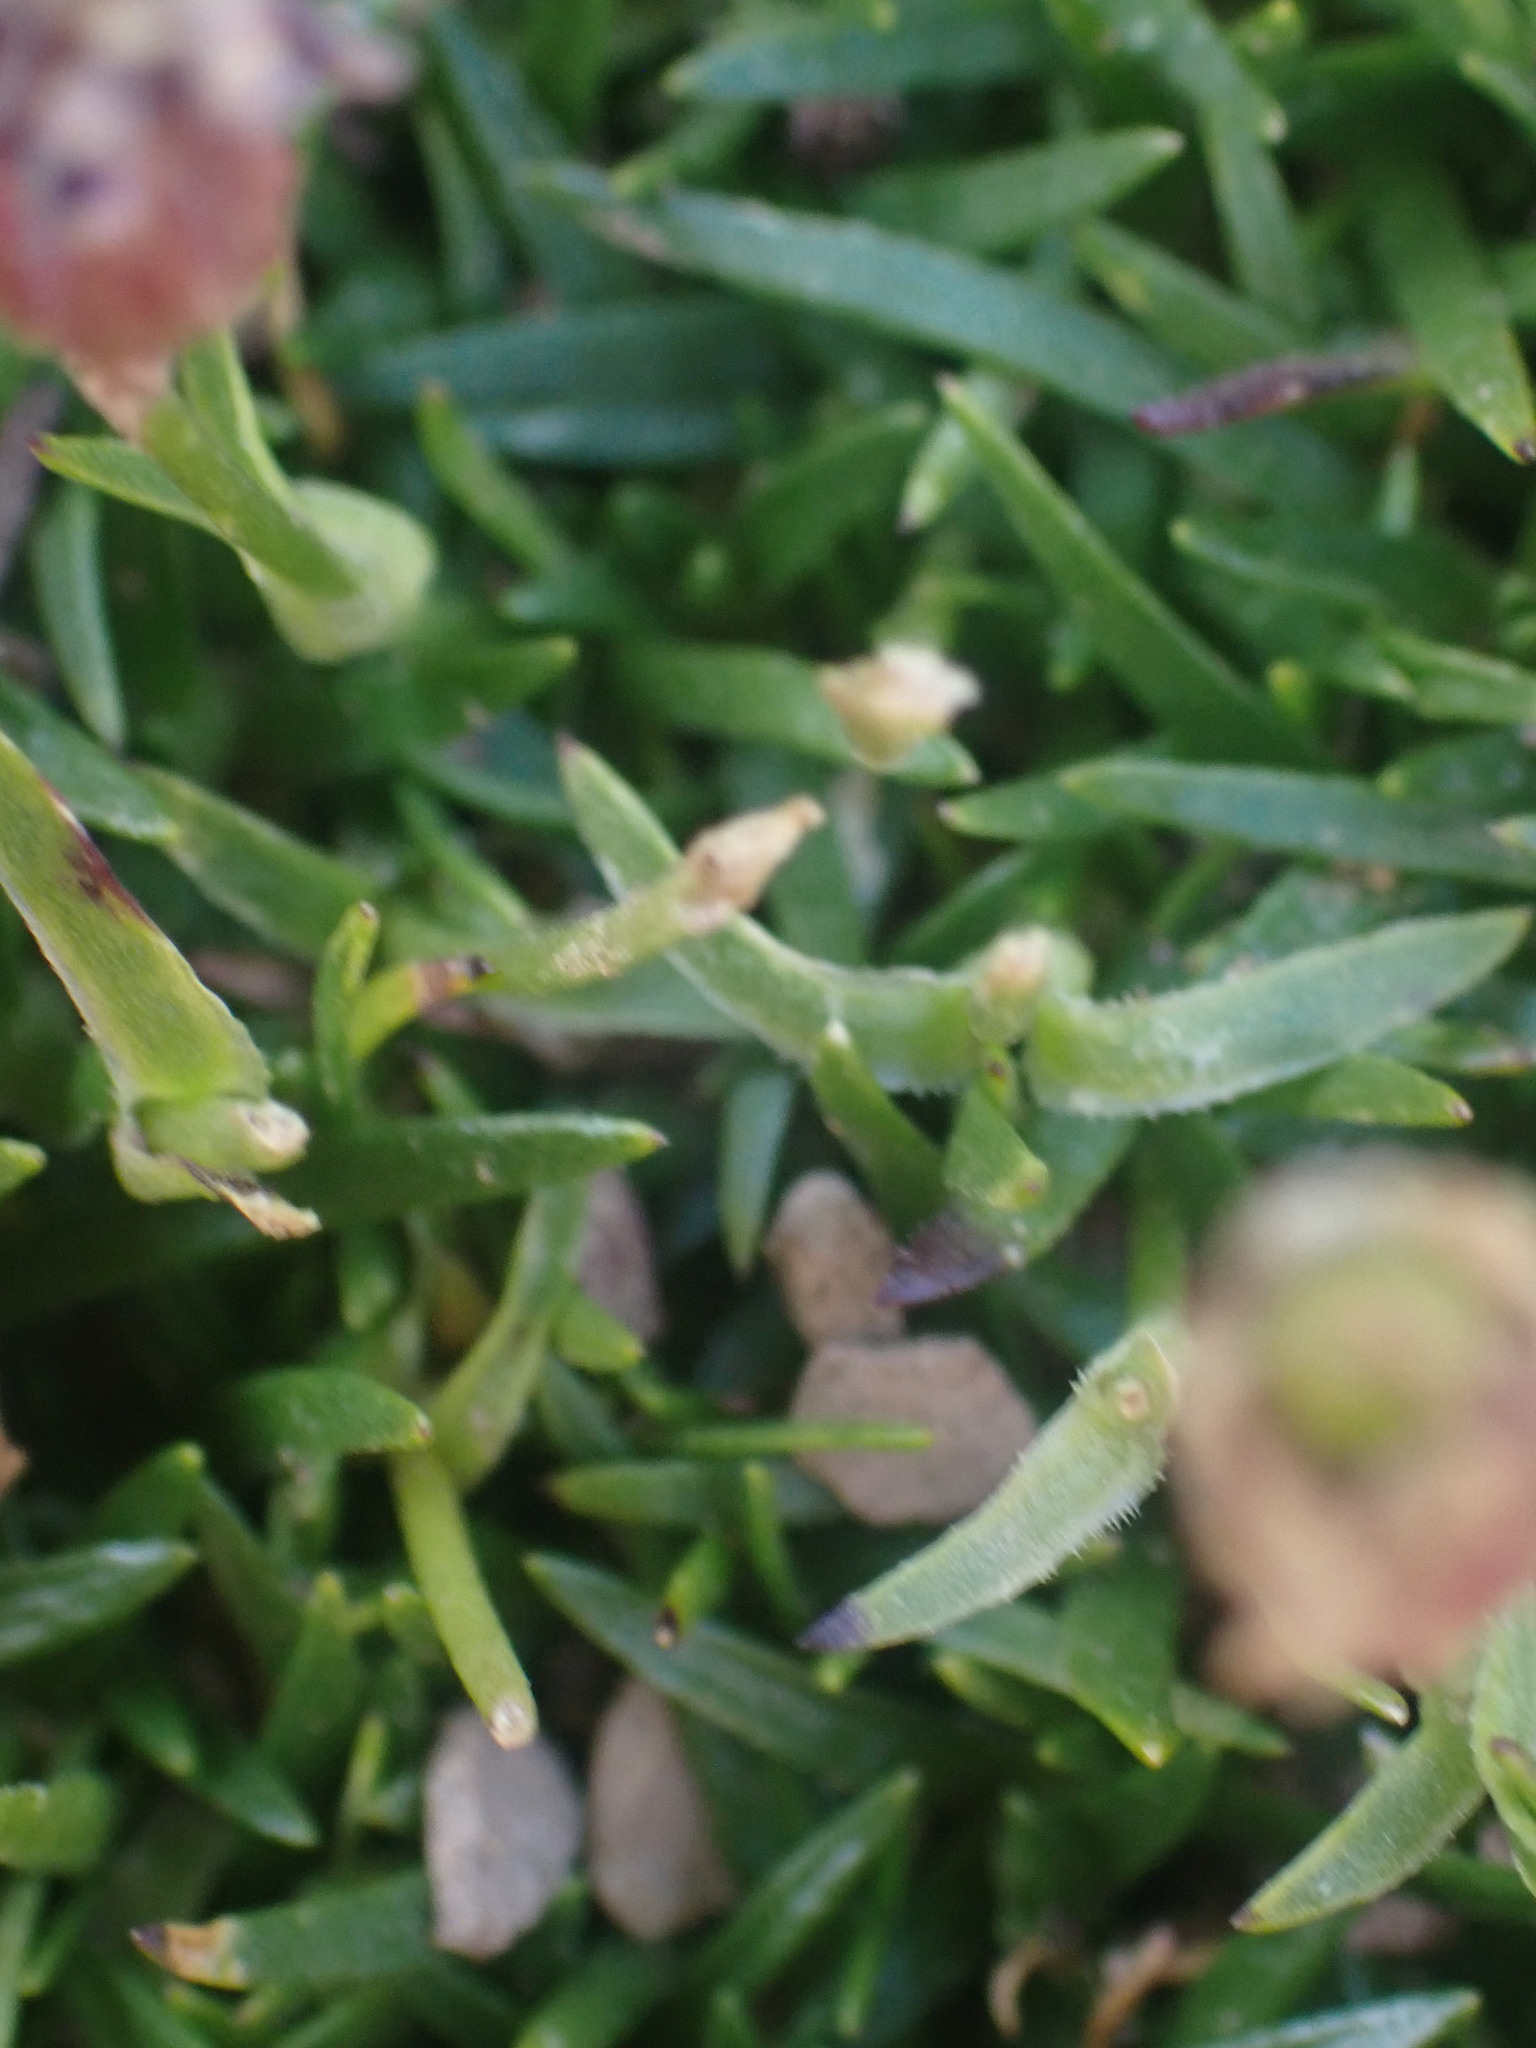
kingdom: Plantae
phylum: Tracheophyta
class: Magnoliopsida
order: Caryophyllales
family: Caryophyllaceae
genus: Silene
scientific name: Silene acaulis
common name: Moss campion
